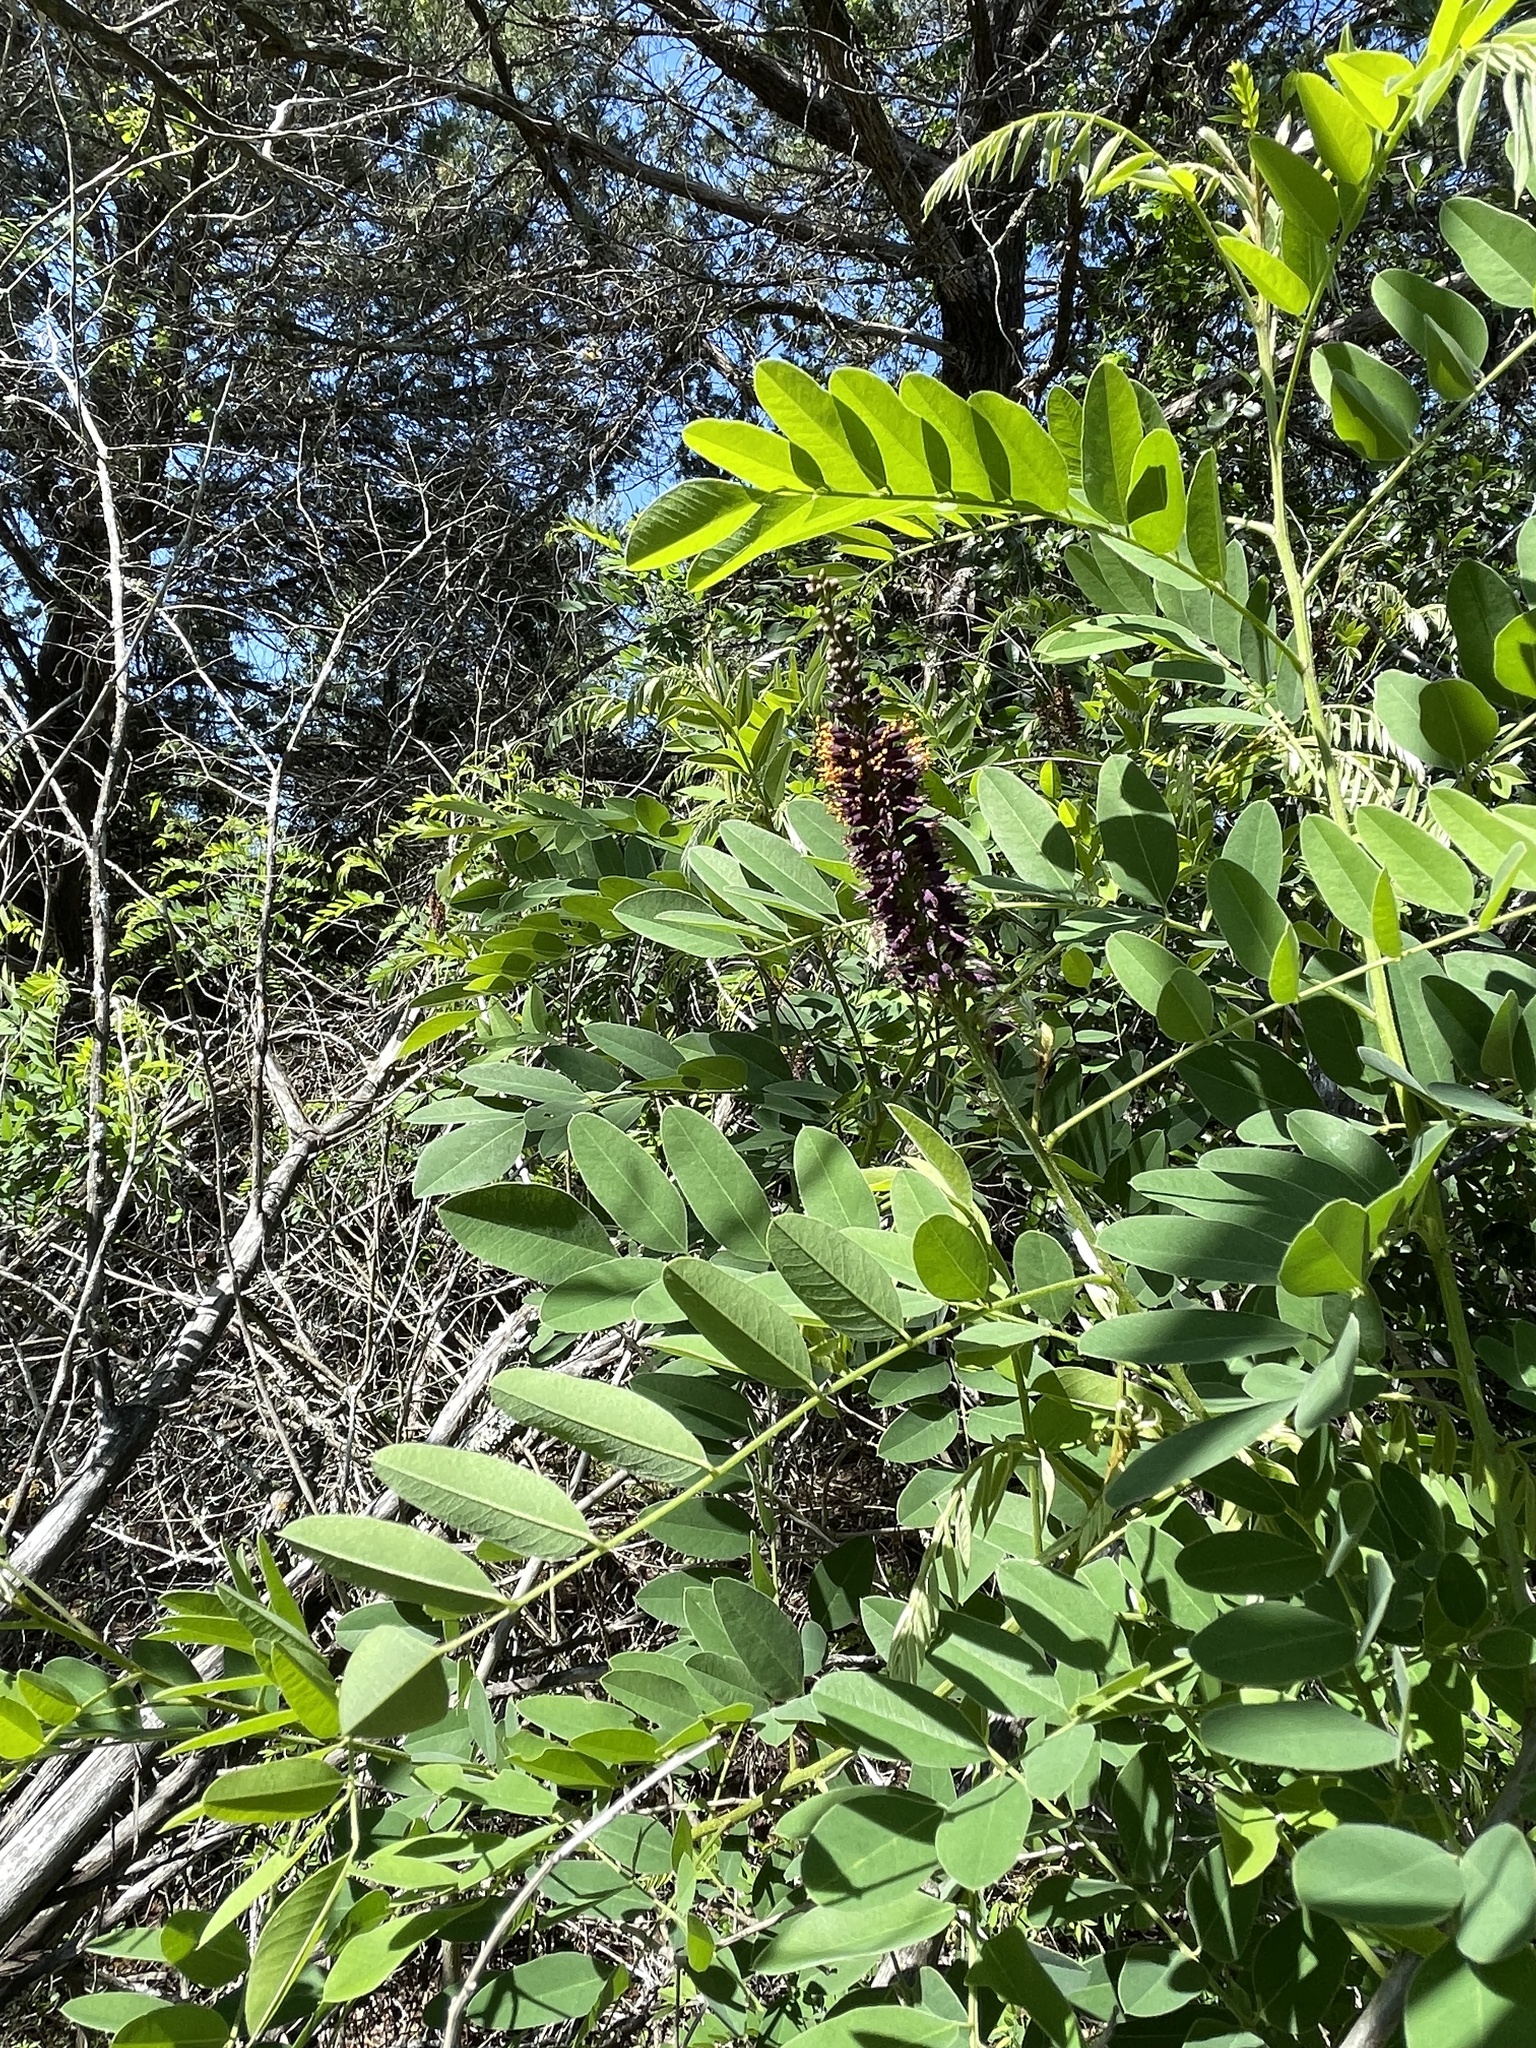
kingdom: Plantae
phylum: Tracheophyta
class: Magnoliopsida
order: Fabales
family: Fabaceae
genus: Amorpha
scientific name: Amorpha fruticosa
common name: False indigo
